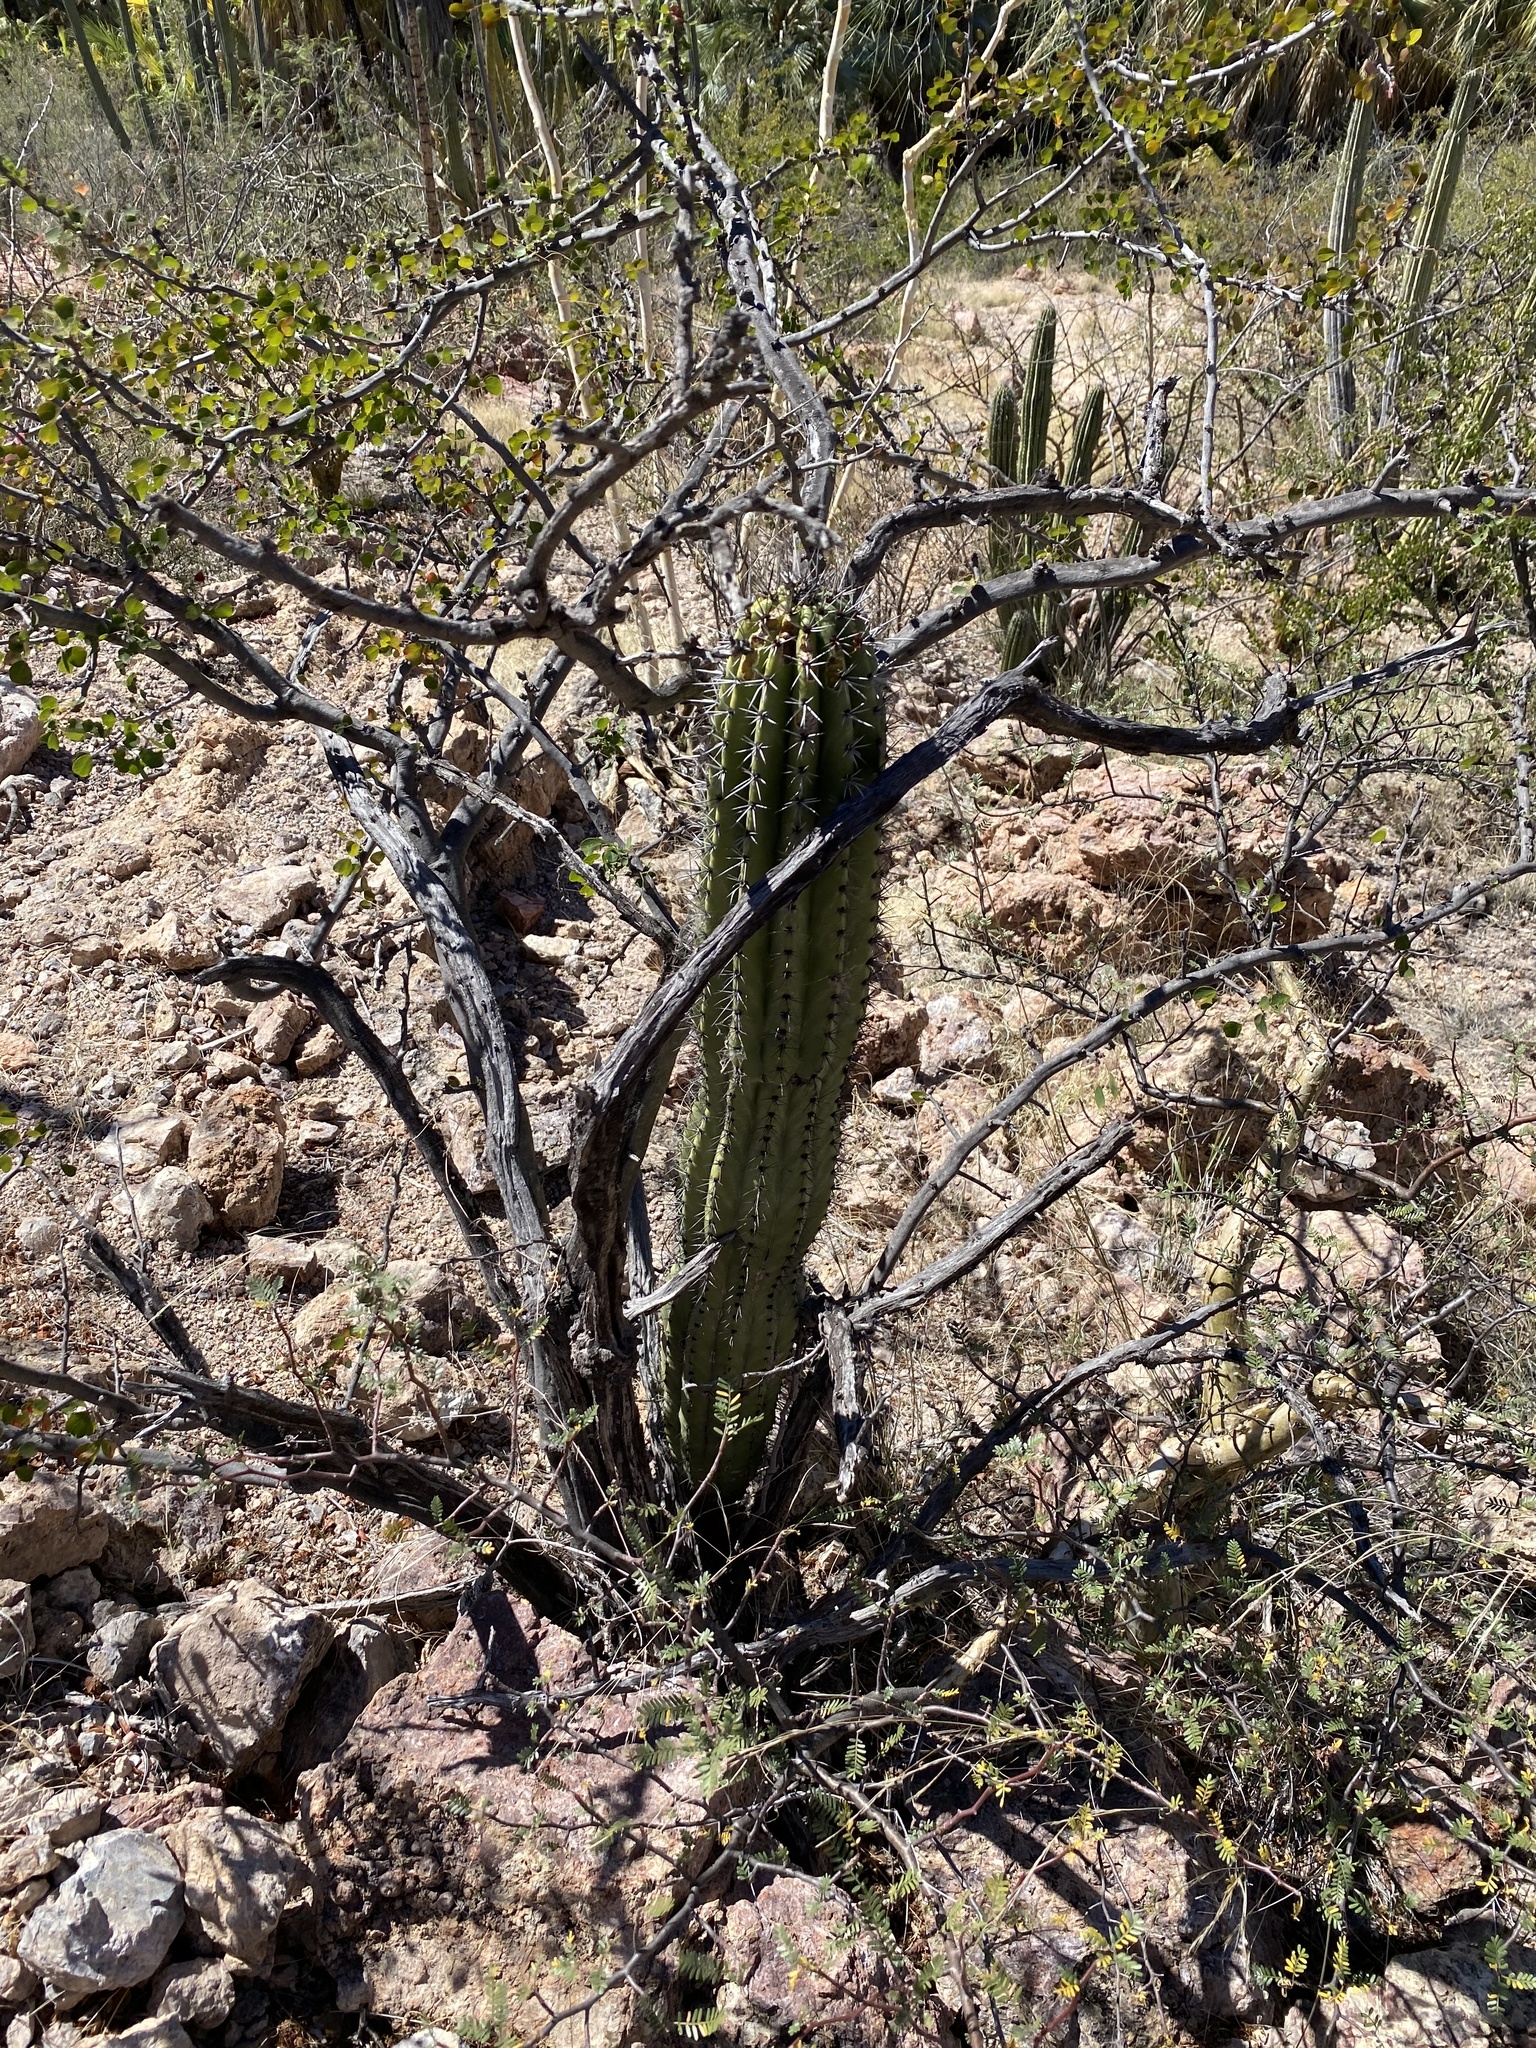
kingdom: Plantae
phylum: Tracheophyta
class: Magnoliopsida
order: Caryophyllales
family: Cactaceae
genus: Stenocereus
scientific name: Stenocereus thurberi
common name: Organ pipe cactus
